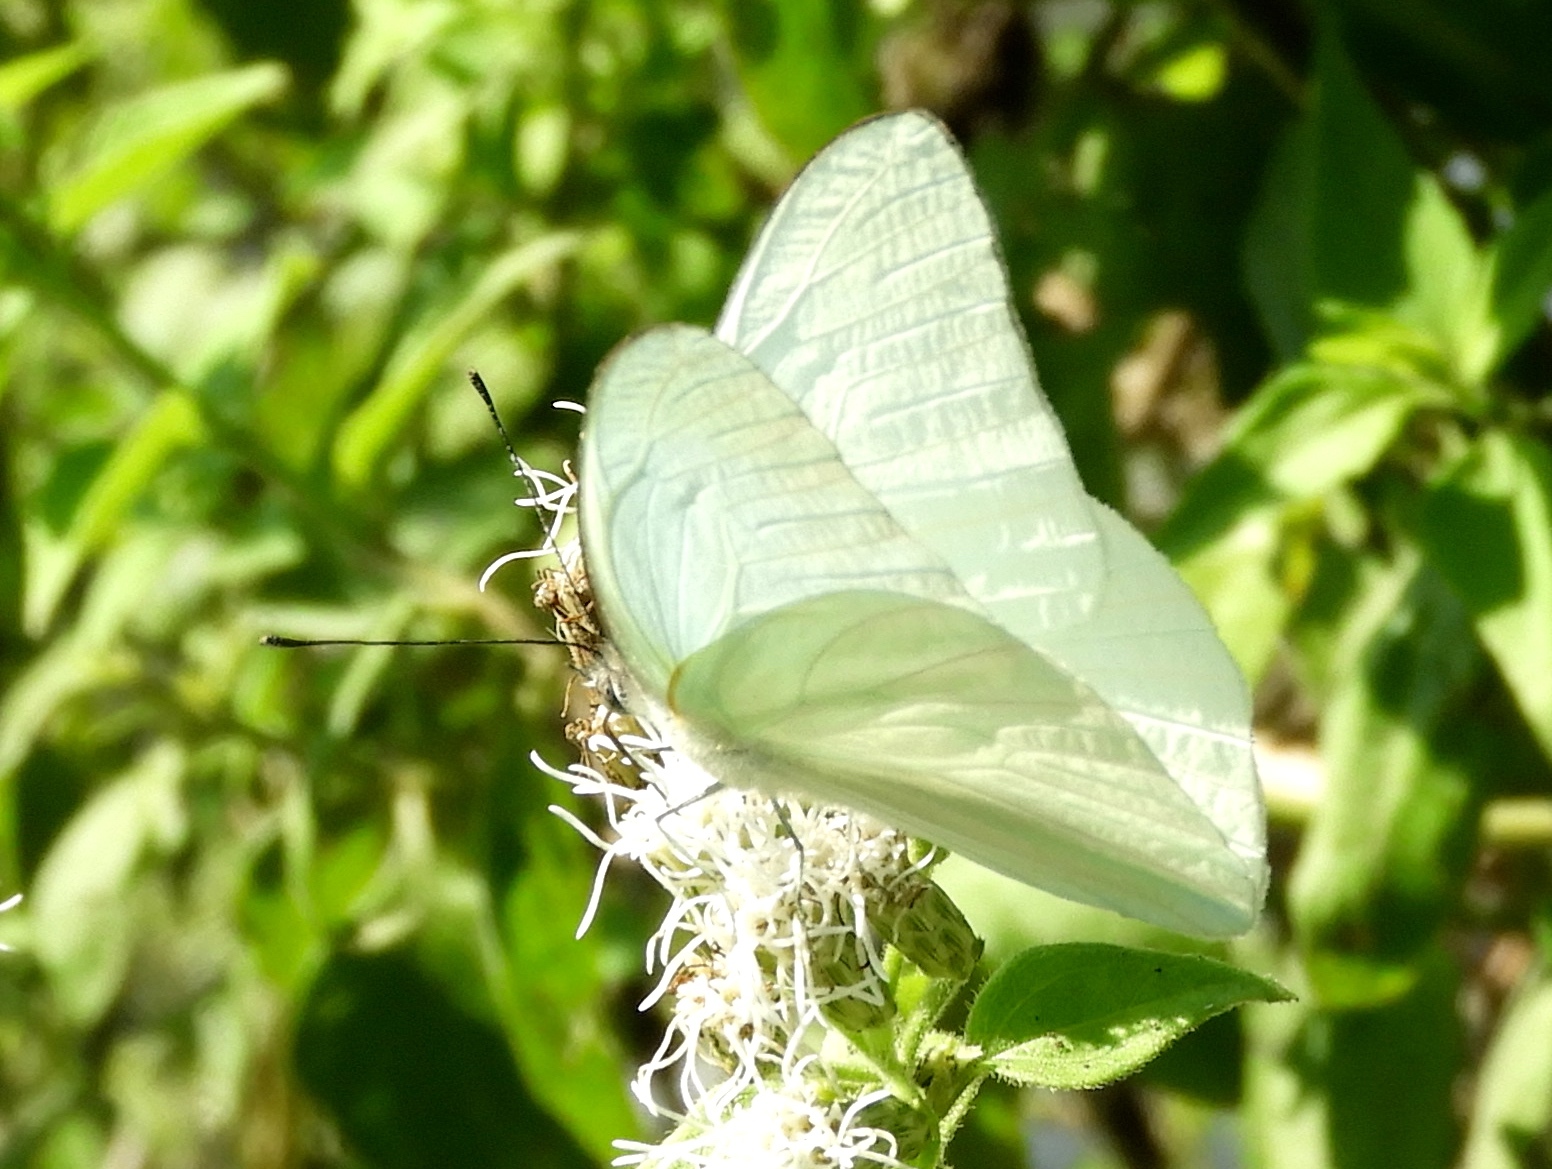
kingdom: Animalia
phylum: Arthropoda
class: Insecta
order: Lepidoptera
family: Pieridae
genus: Glutophrissa
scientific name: Glutophrissa drusilla
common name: Florida white
